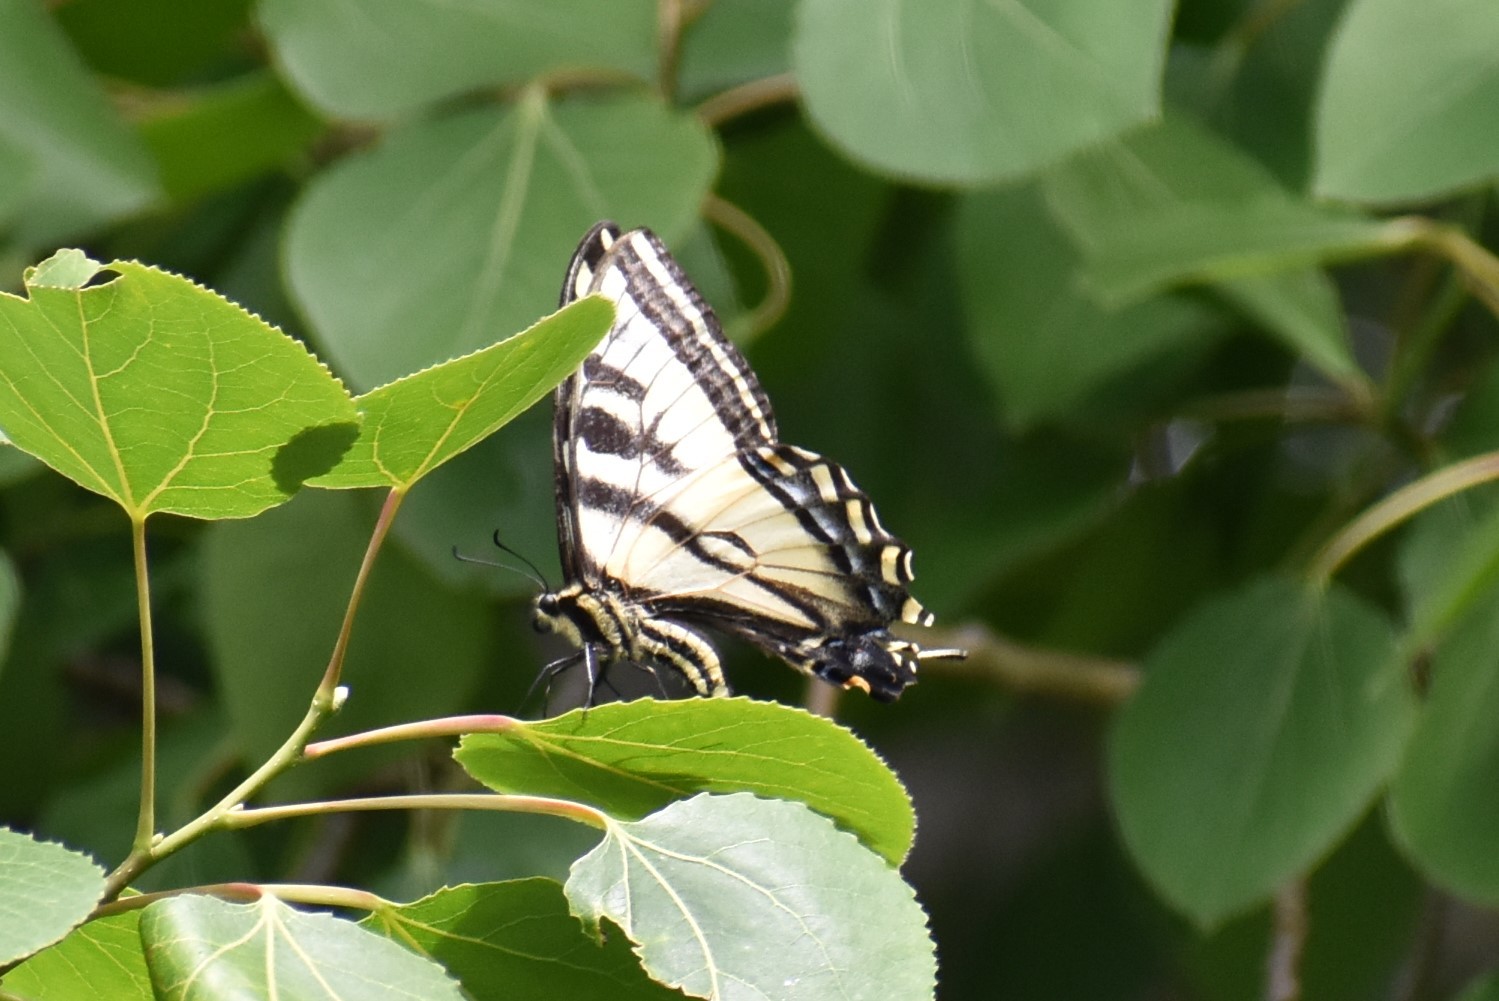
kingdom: Animalia
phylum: Arthropoda
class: Insecta
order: Lepidoptera
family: Papilionidae
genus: Papilio
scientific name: Papilio rutulus
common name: Western tiger swallowtail
